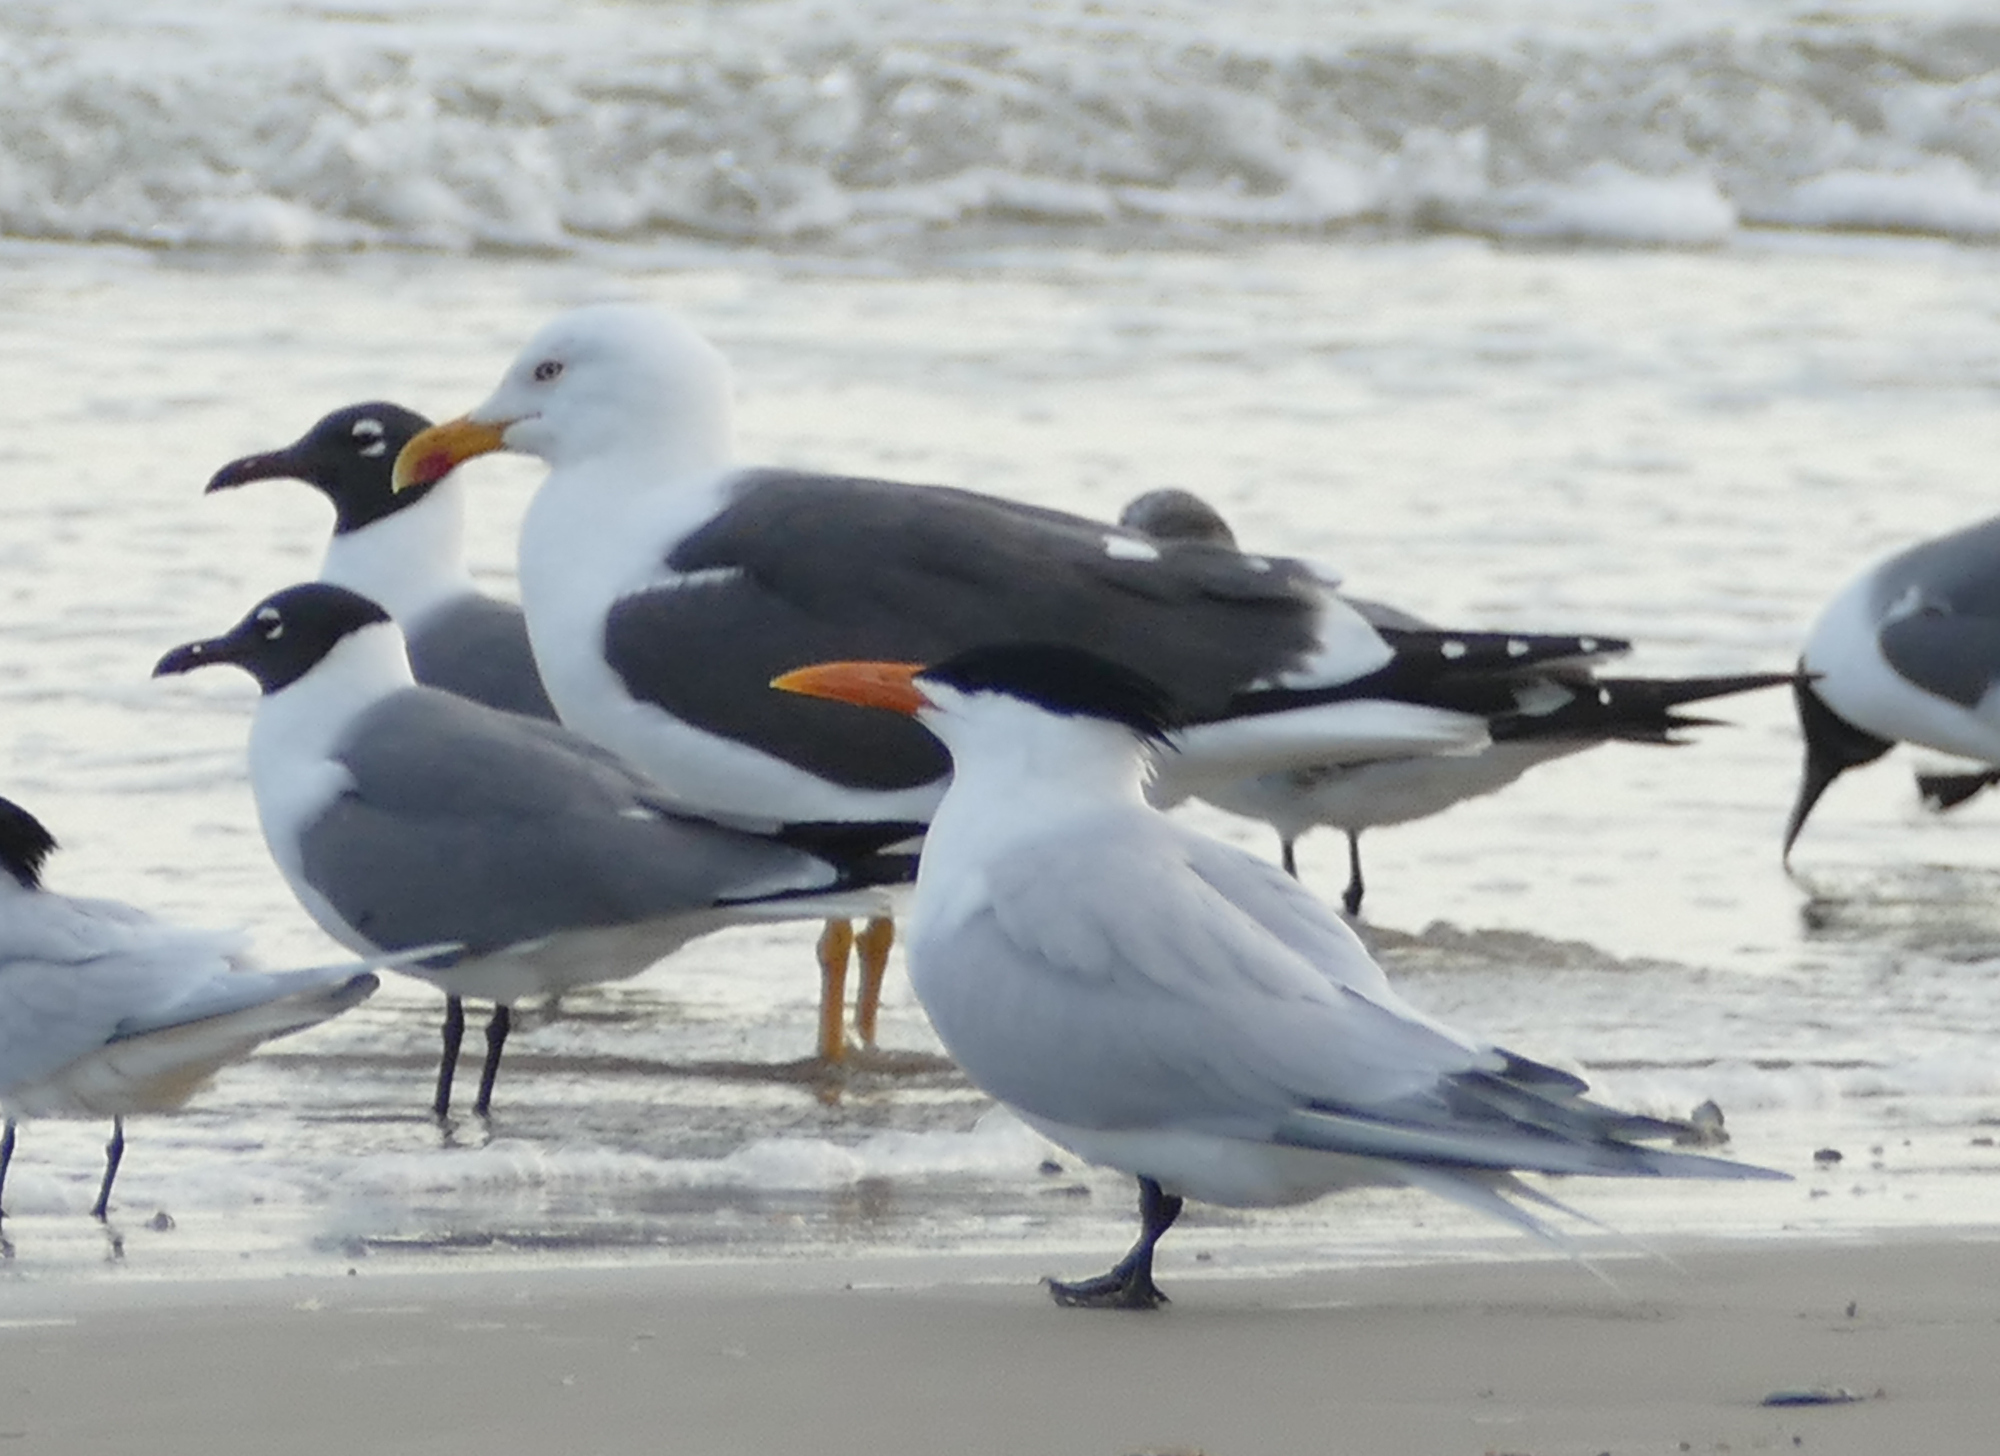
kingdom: Animalia
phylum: Chordata
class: Aves
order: Charadriiformes
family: Laridae
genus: Larus
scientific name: Larus fuscus
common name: Lesser black-backed gull
